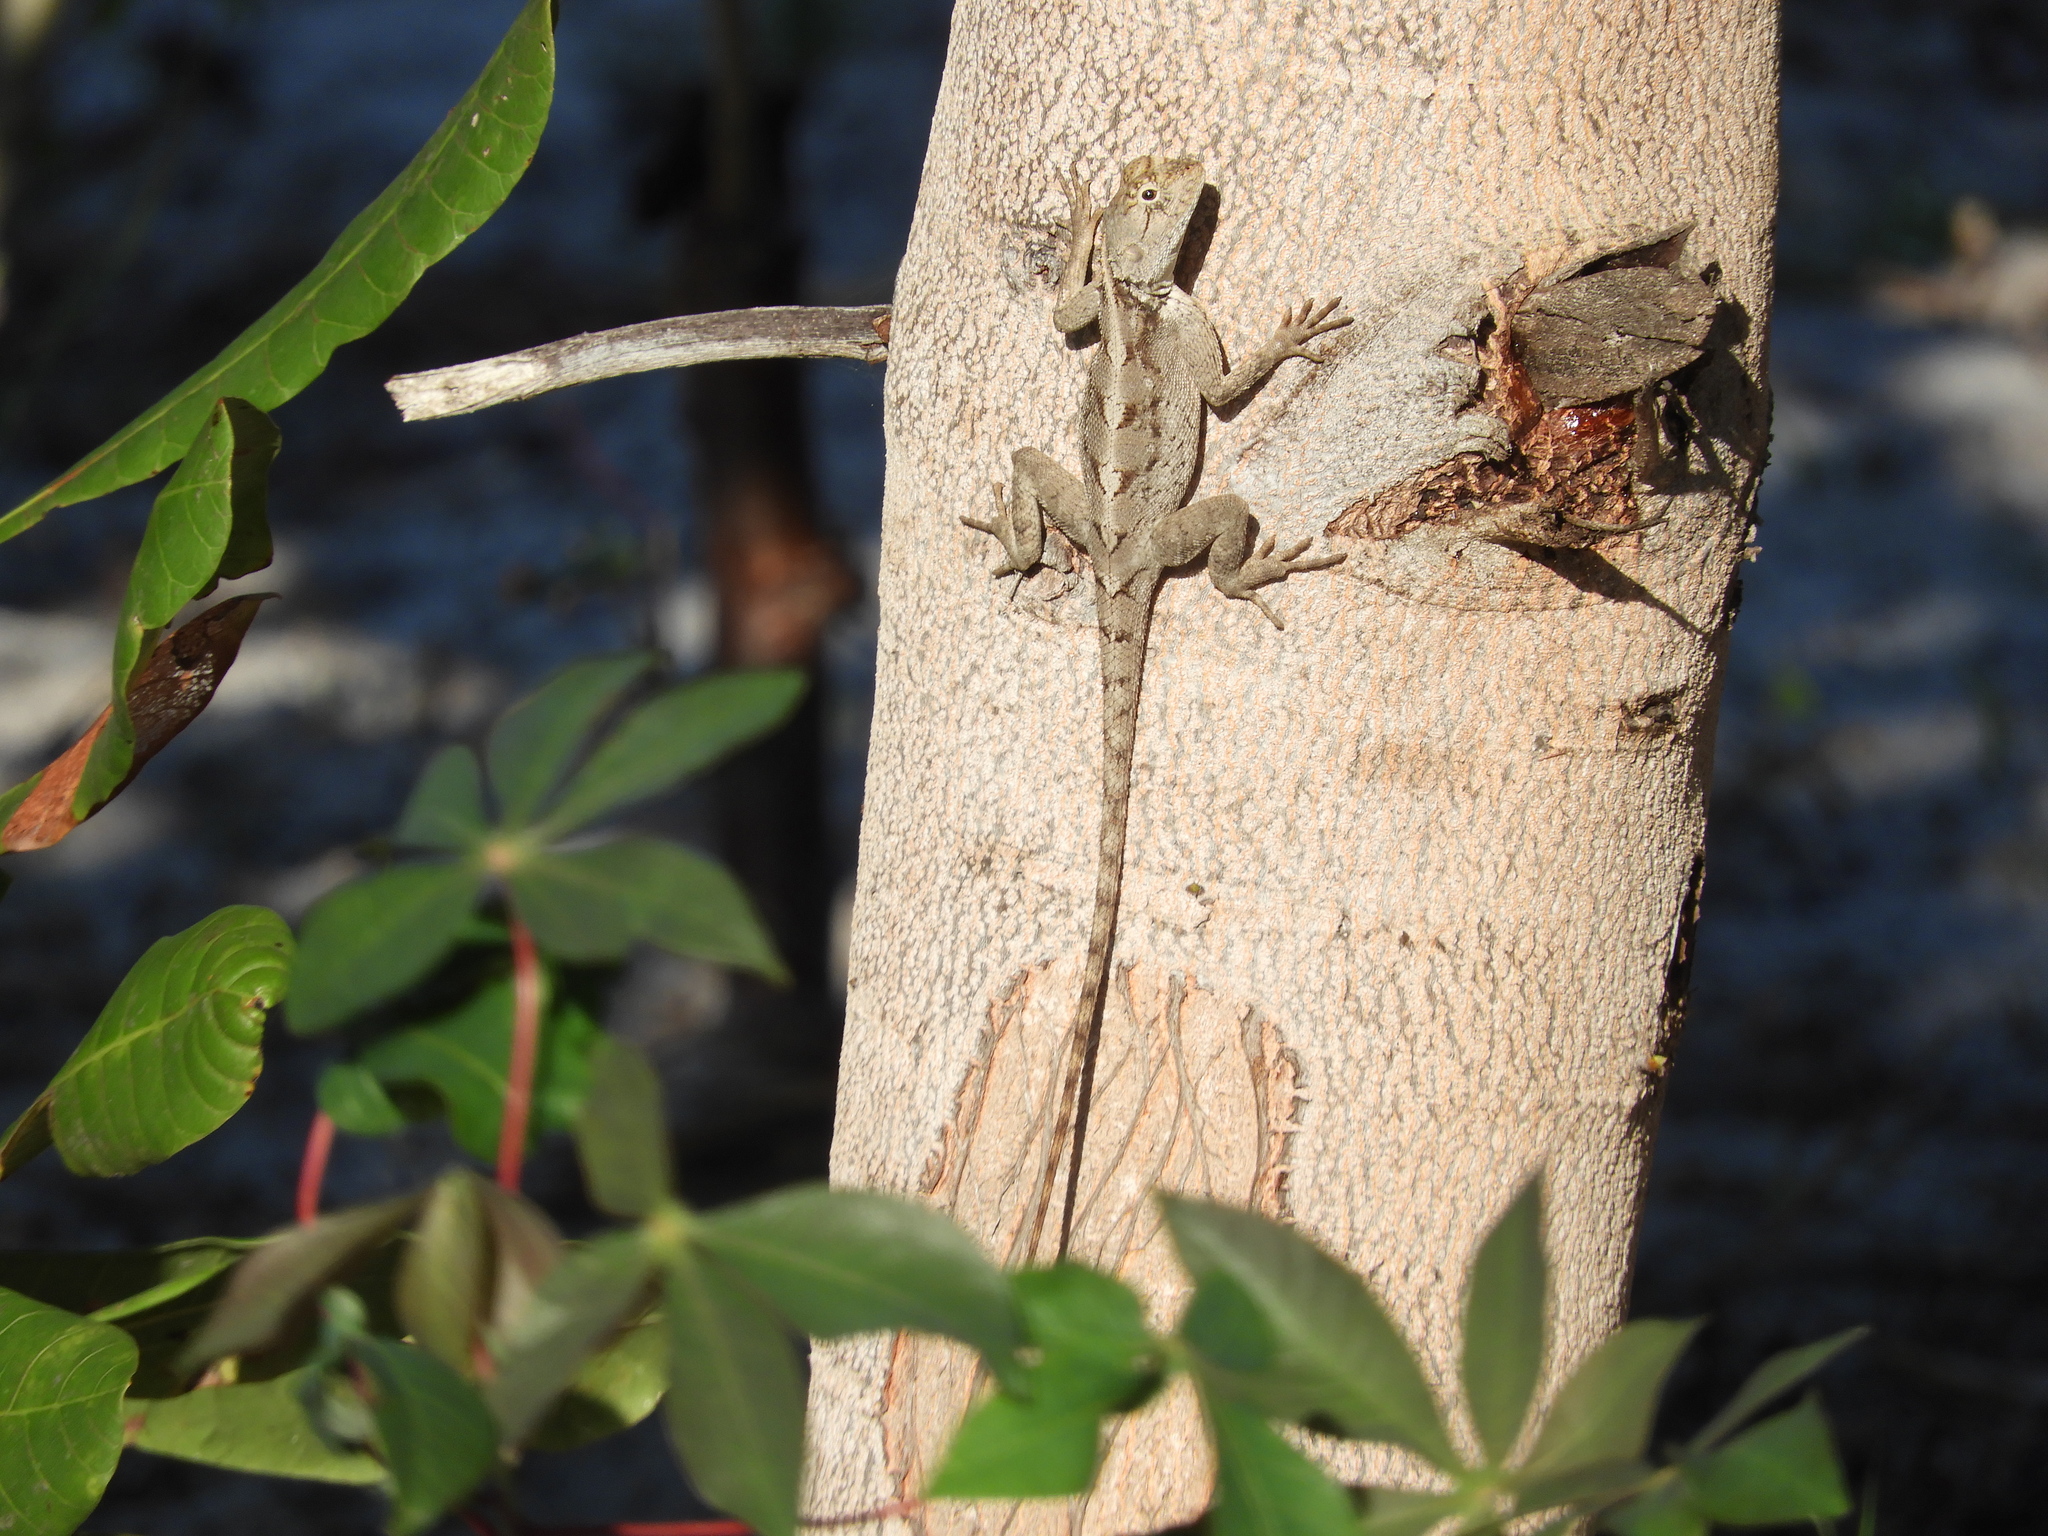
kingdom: Animalia
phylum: Chordata
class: Squamata
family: Agamidae
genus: Agama
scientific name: Agama mossambica
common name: Mozambique agama
